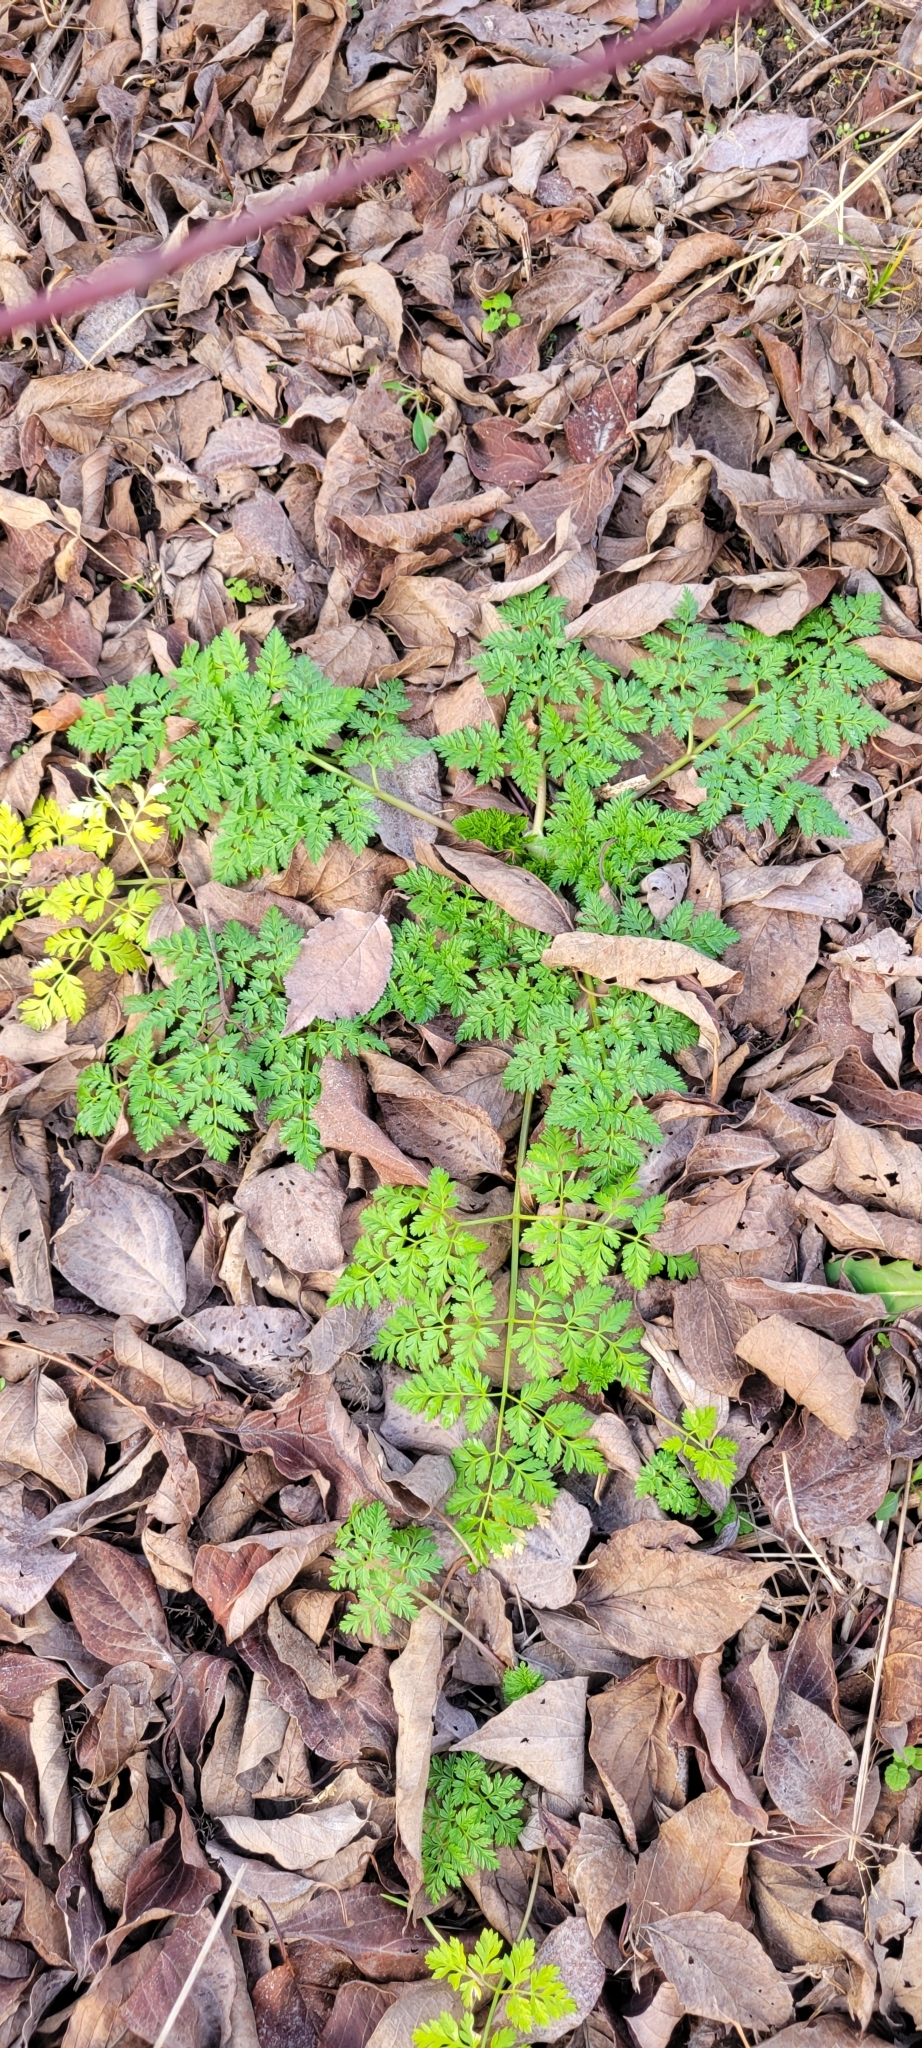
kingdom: Plantae
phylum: Tracheophyta
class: Magnoliopsida
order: Apiales
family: Apiaceae
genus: Conium
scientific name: Conium maculatum
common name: Hemlock
